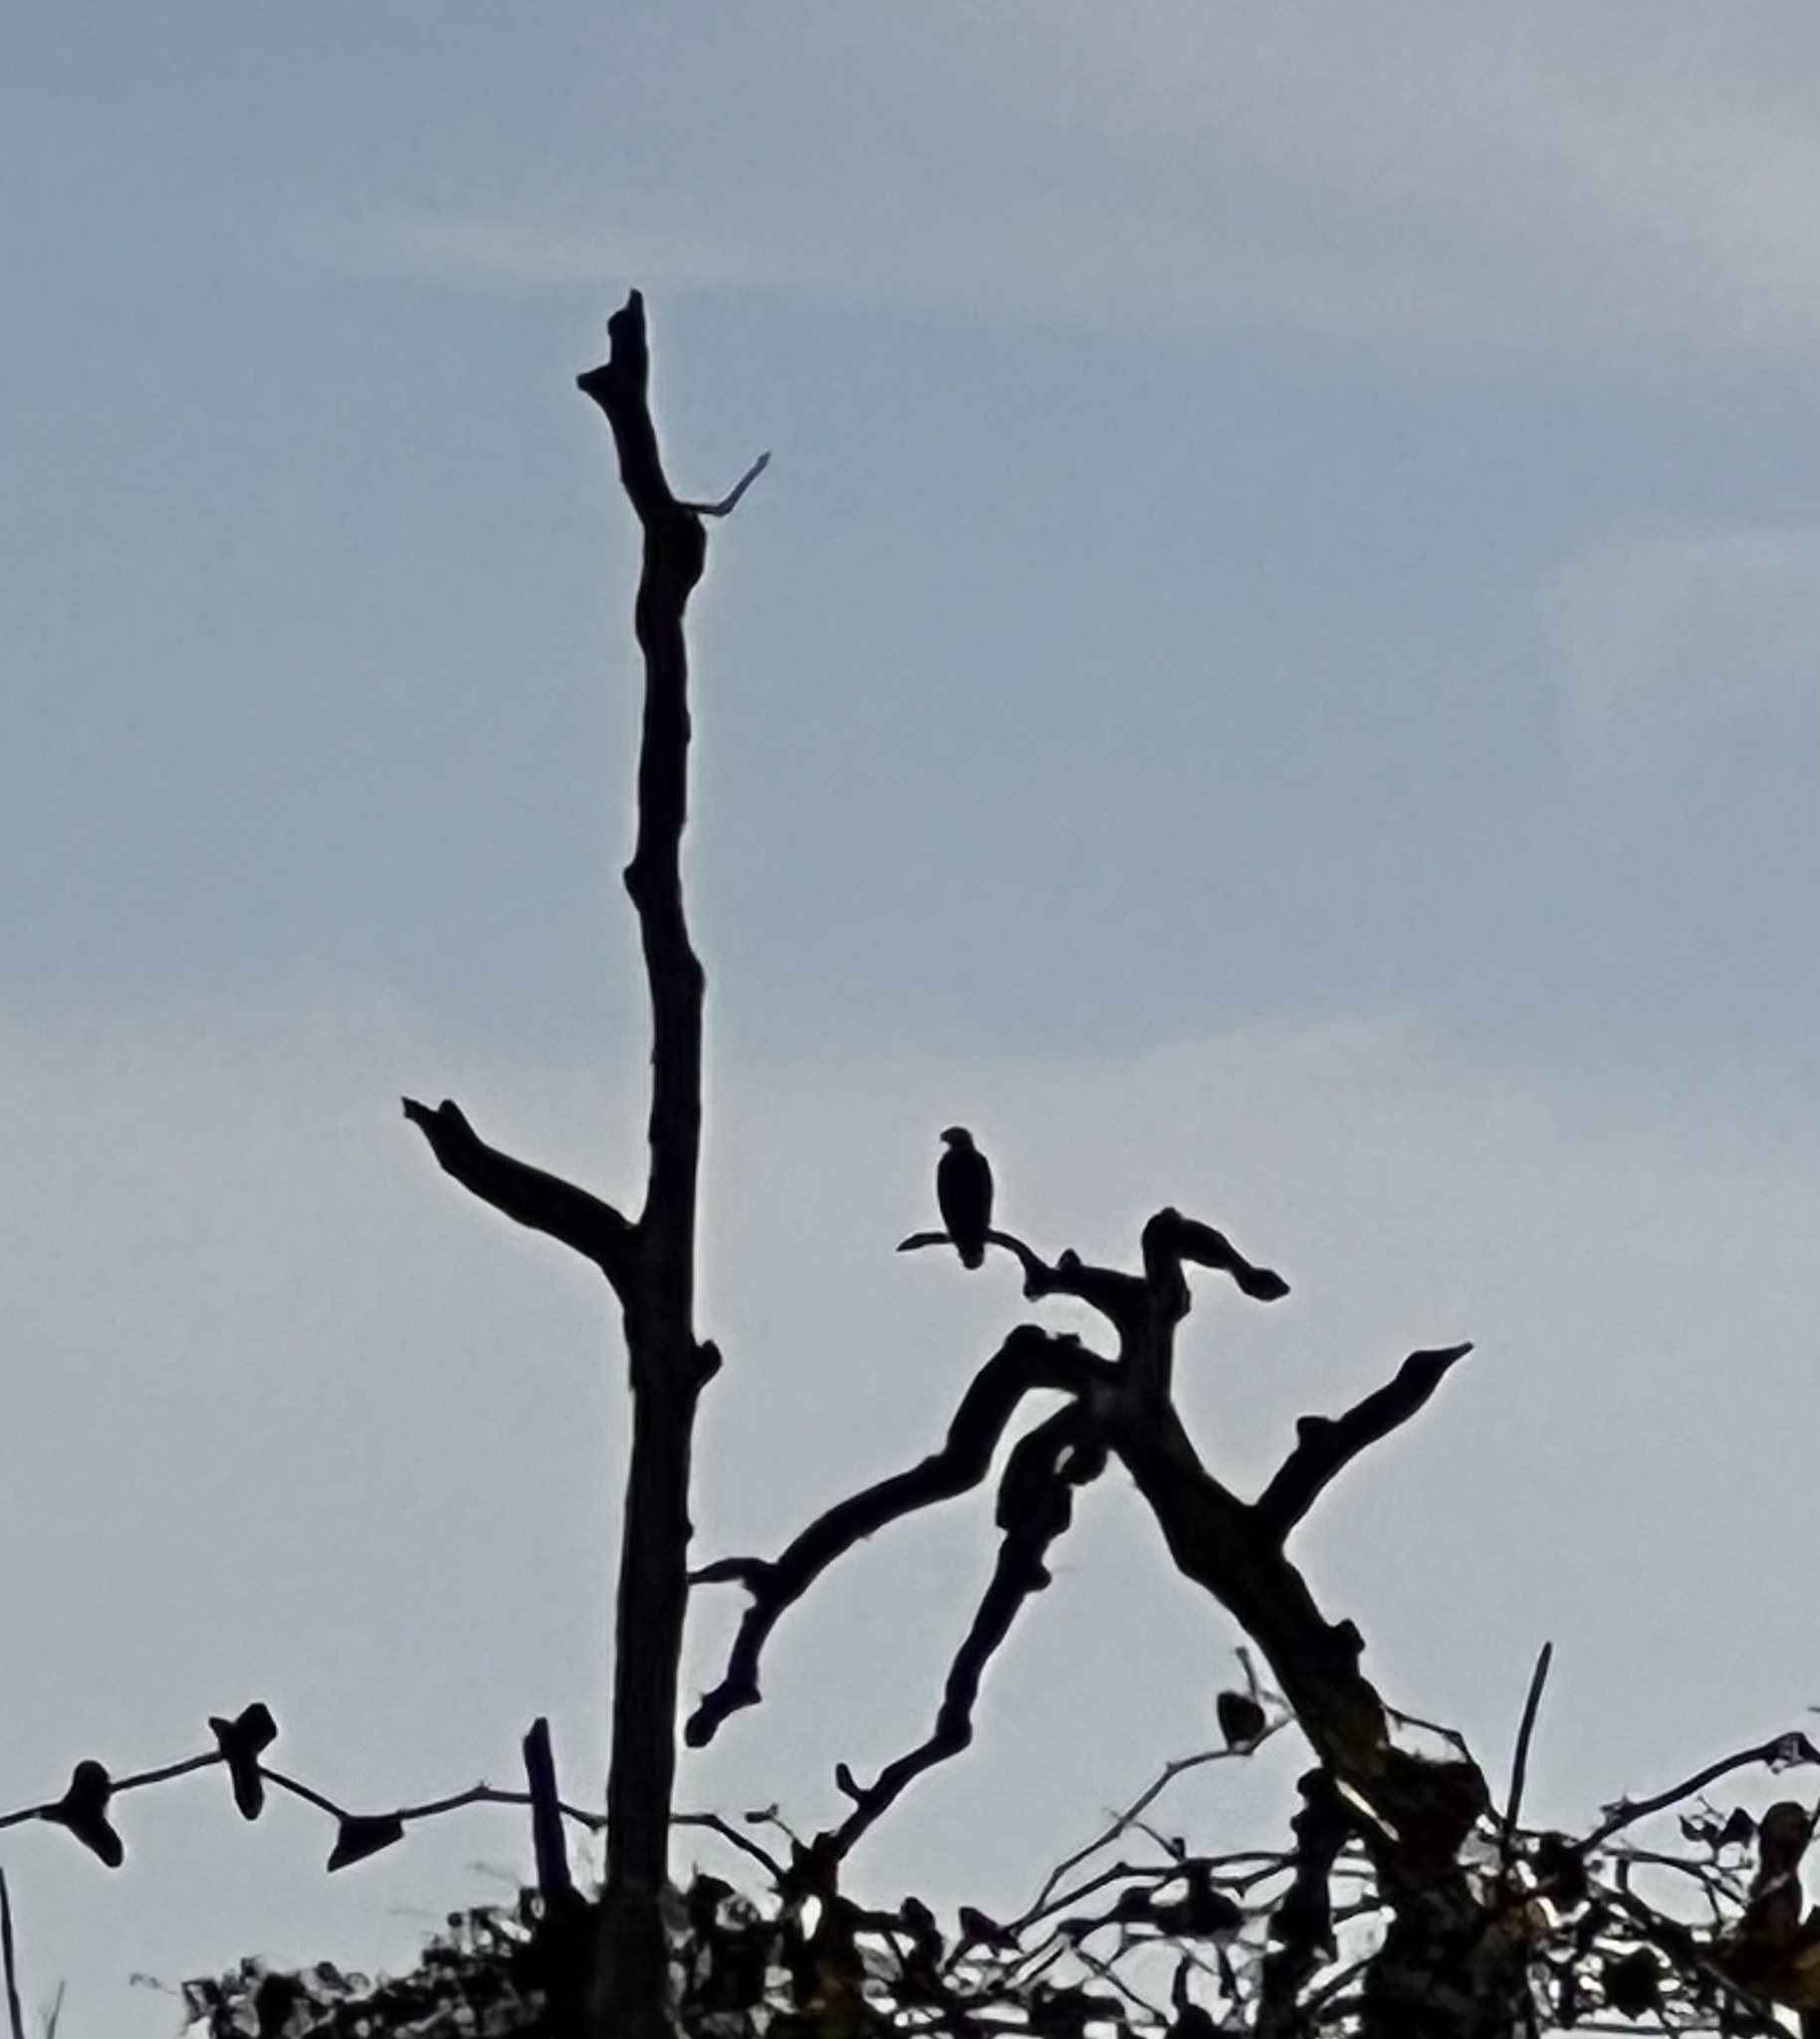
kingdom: Animalia
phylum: Chordata
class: Aves
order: Accipitriformes
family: Accipitridae
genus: Haliaeetus
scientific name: Haliaeetus leucocephalus
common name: Bald eagle
